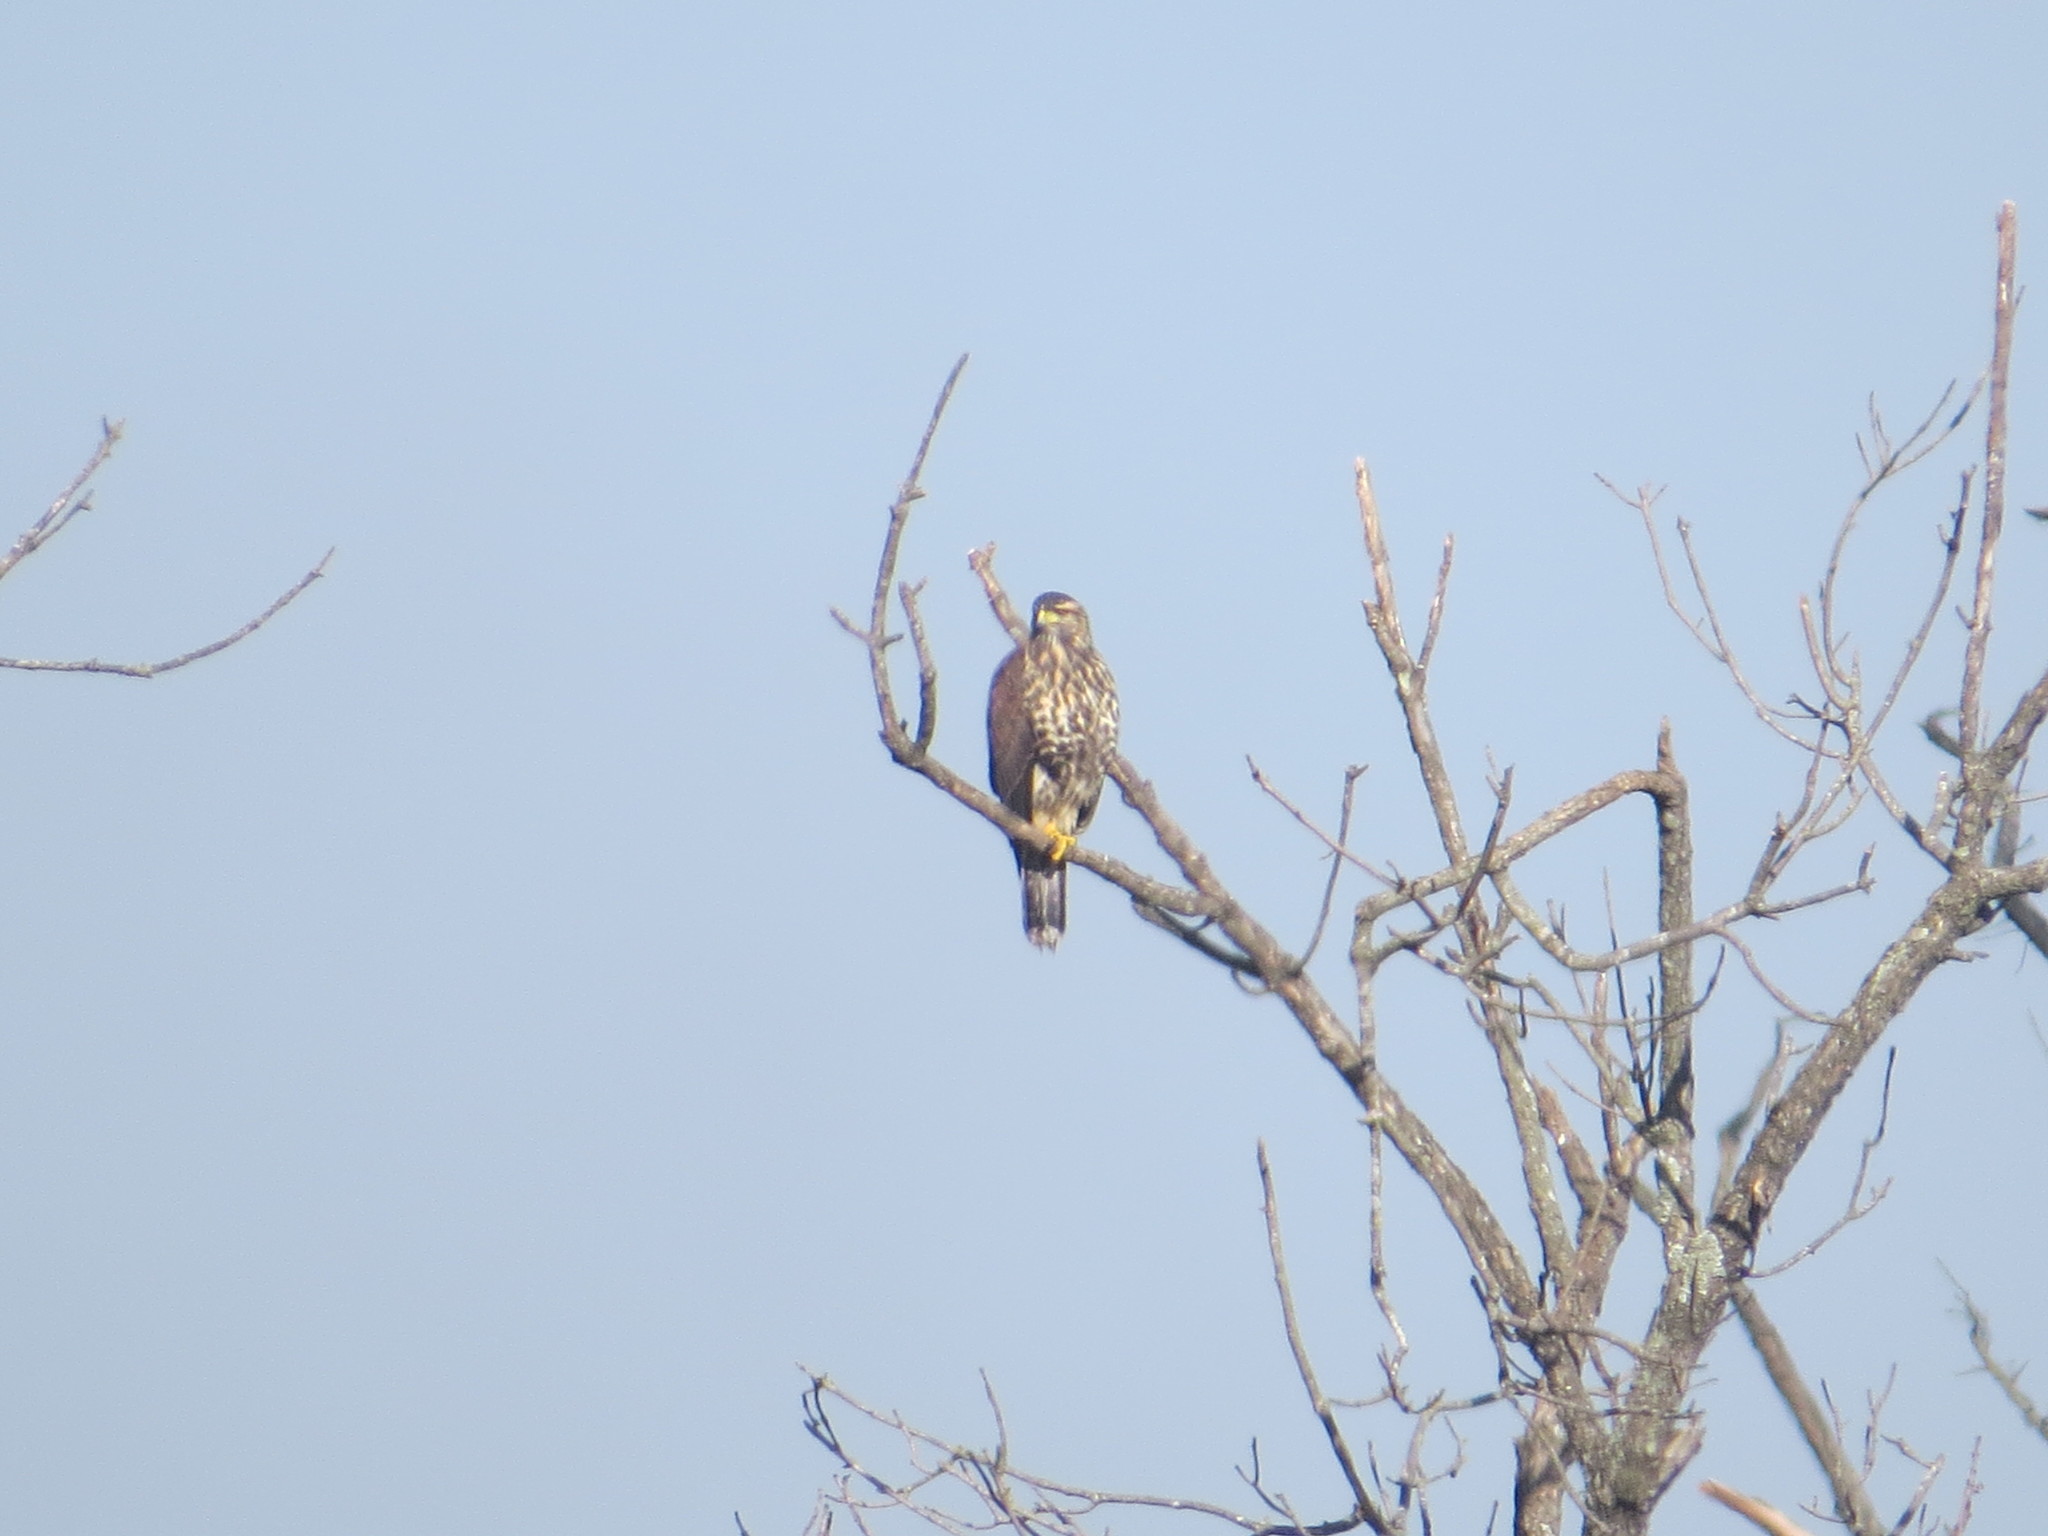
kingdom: Animalia
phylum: Chordata
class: Aves
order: Accipitriformes
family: Accipitridae
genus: Parabuteo
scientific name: Parabuteo unicinctus
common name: Harris's hawk
